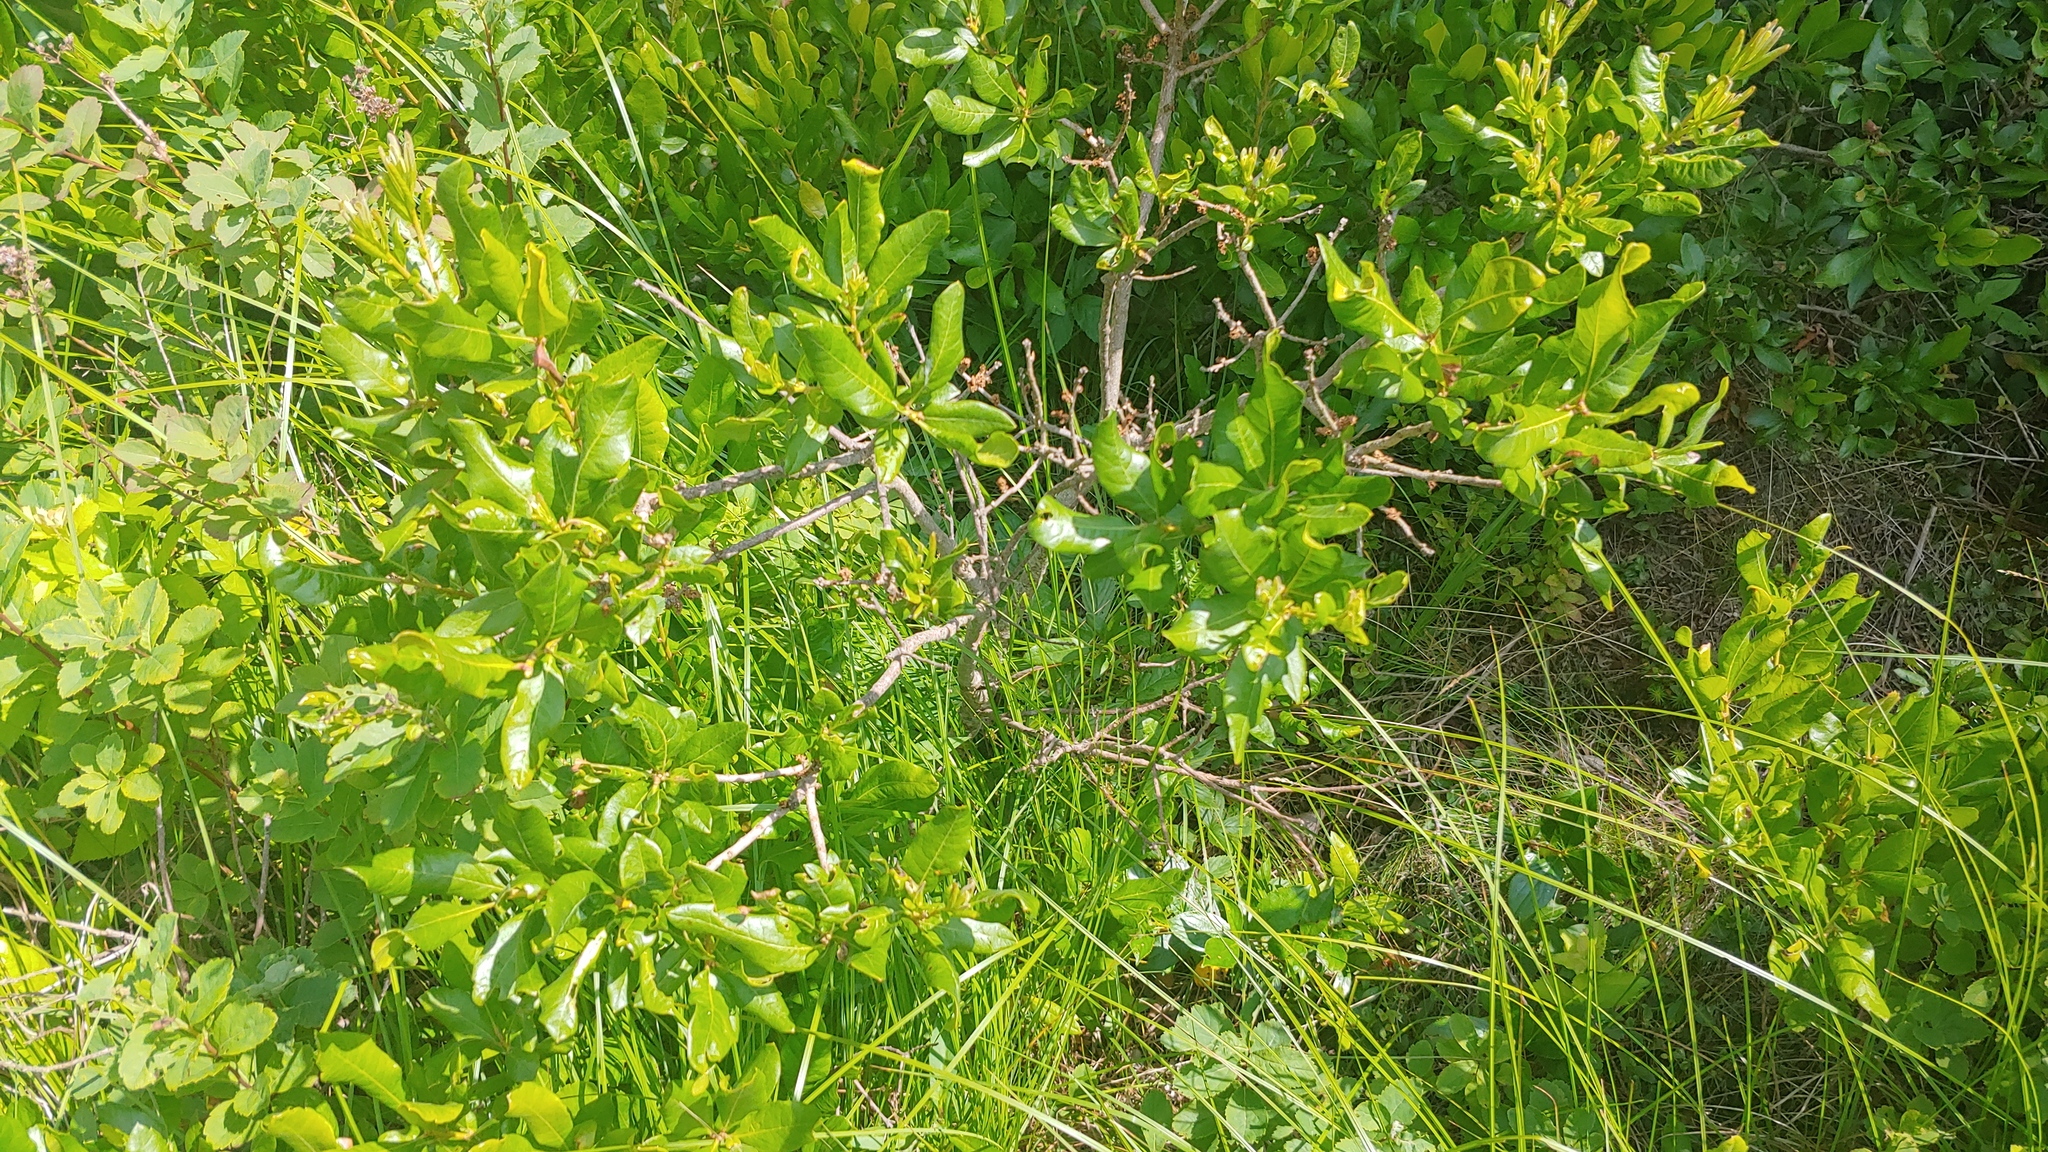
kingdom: Plantae
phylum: Tracheophyta
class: Magnoliopsida
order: Fagales
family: Myricaceae
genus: Morella
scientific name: Morella pensylvanica
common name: Northern bayberry
